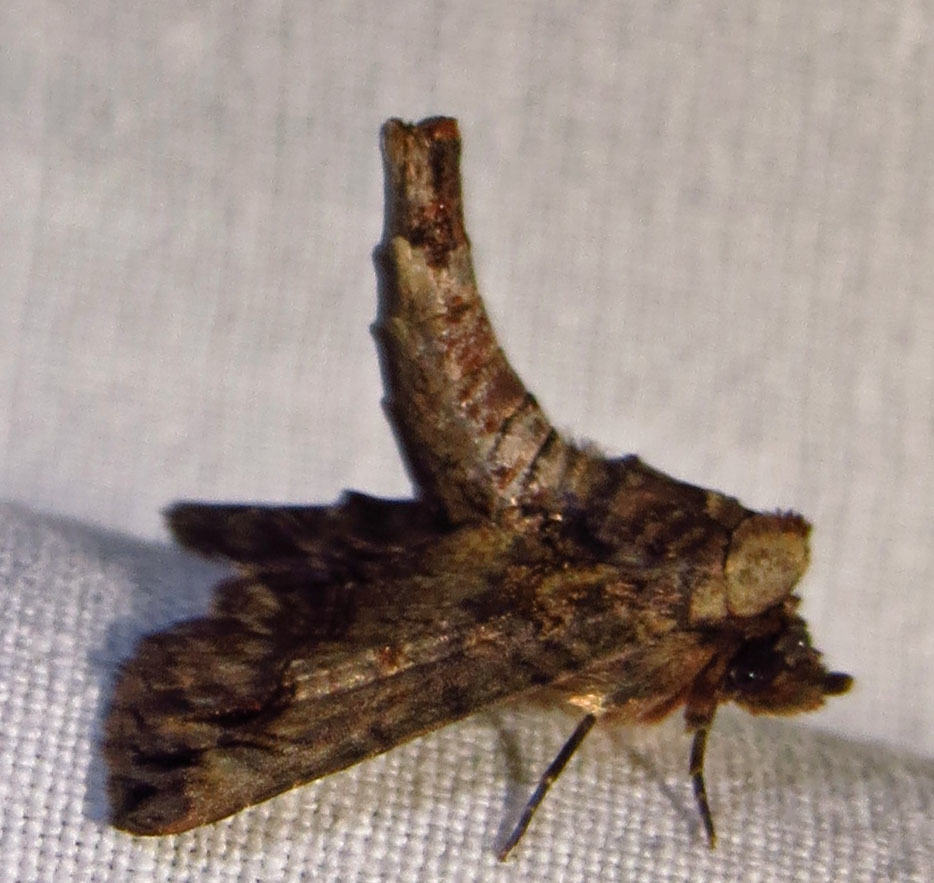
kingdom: Animalia
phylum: Arthropoda
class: Insecta
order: Lepidoptera
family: Euteliidae
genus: Paectes
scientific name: Paectes abrostoloides
